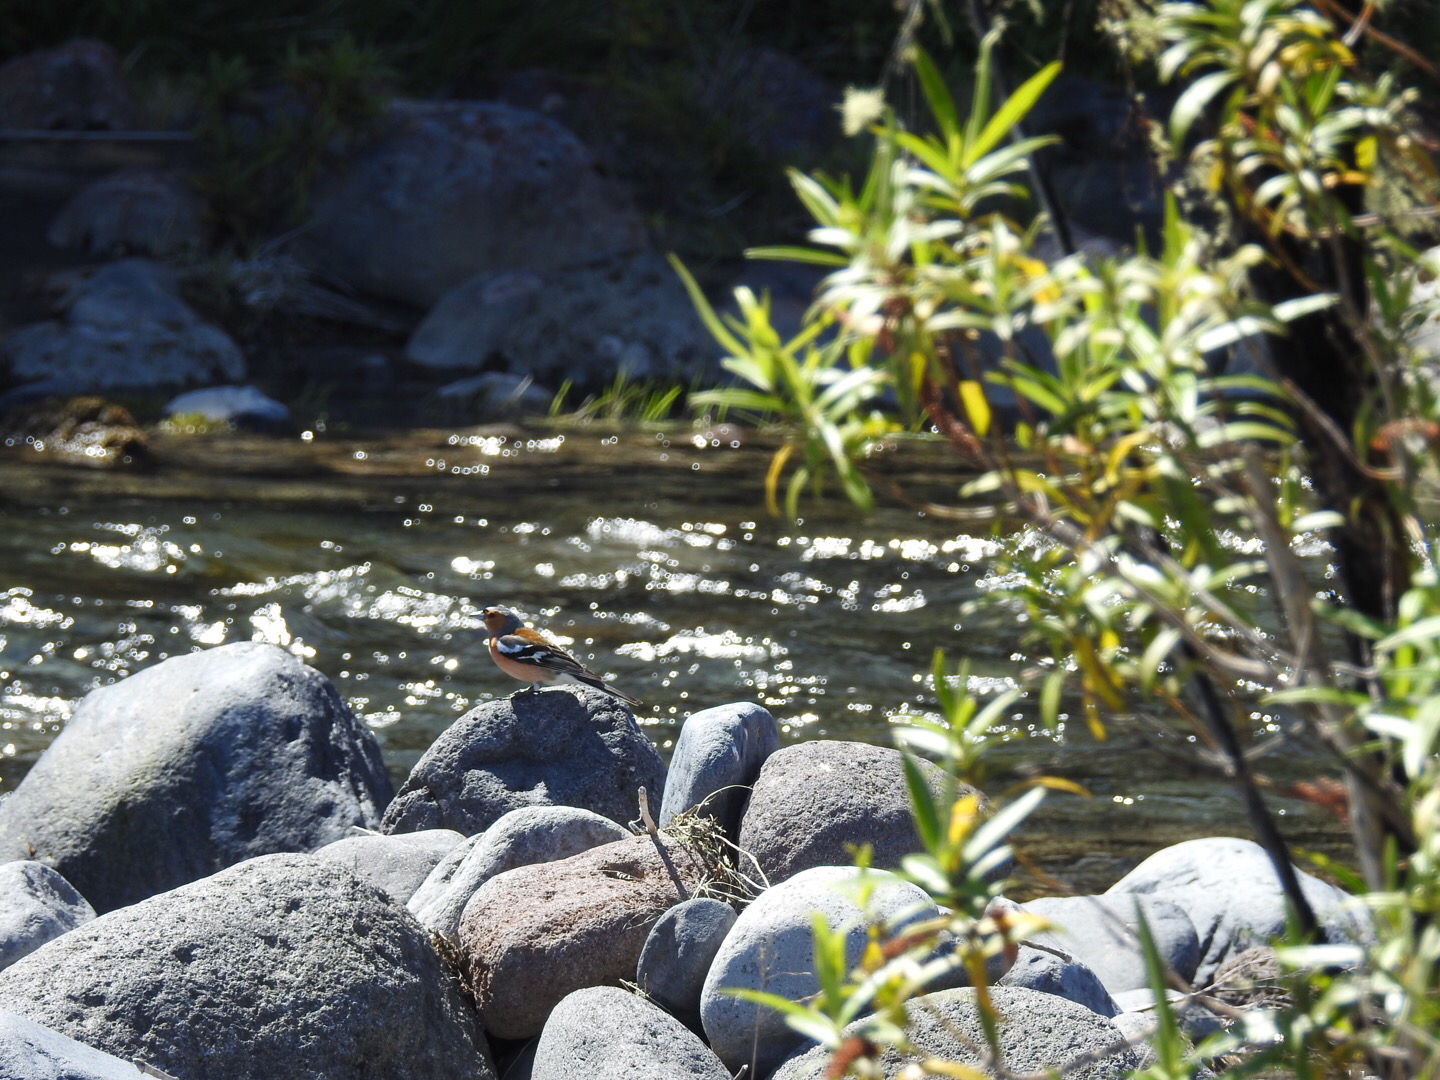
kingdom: Animalia
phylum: Chordata
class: Aves
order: Passeriformes
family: Fringillidae
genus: Fringilla
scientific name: Fringilla coelebs
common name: Common chaffinch
